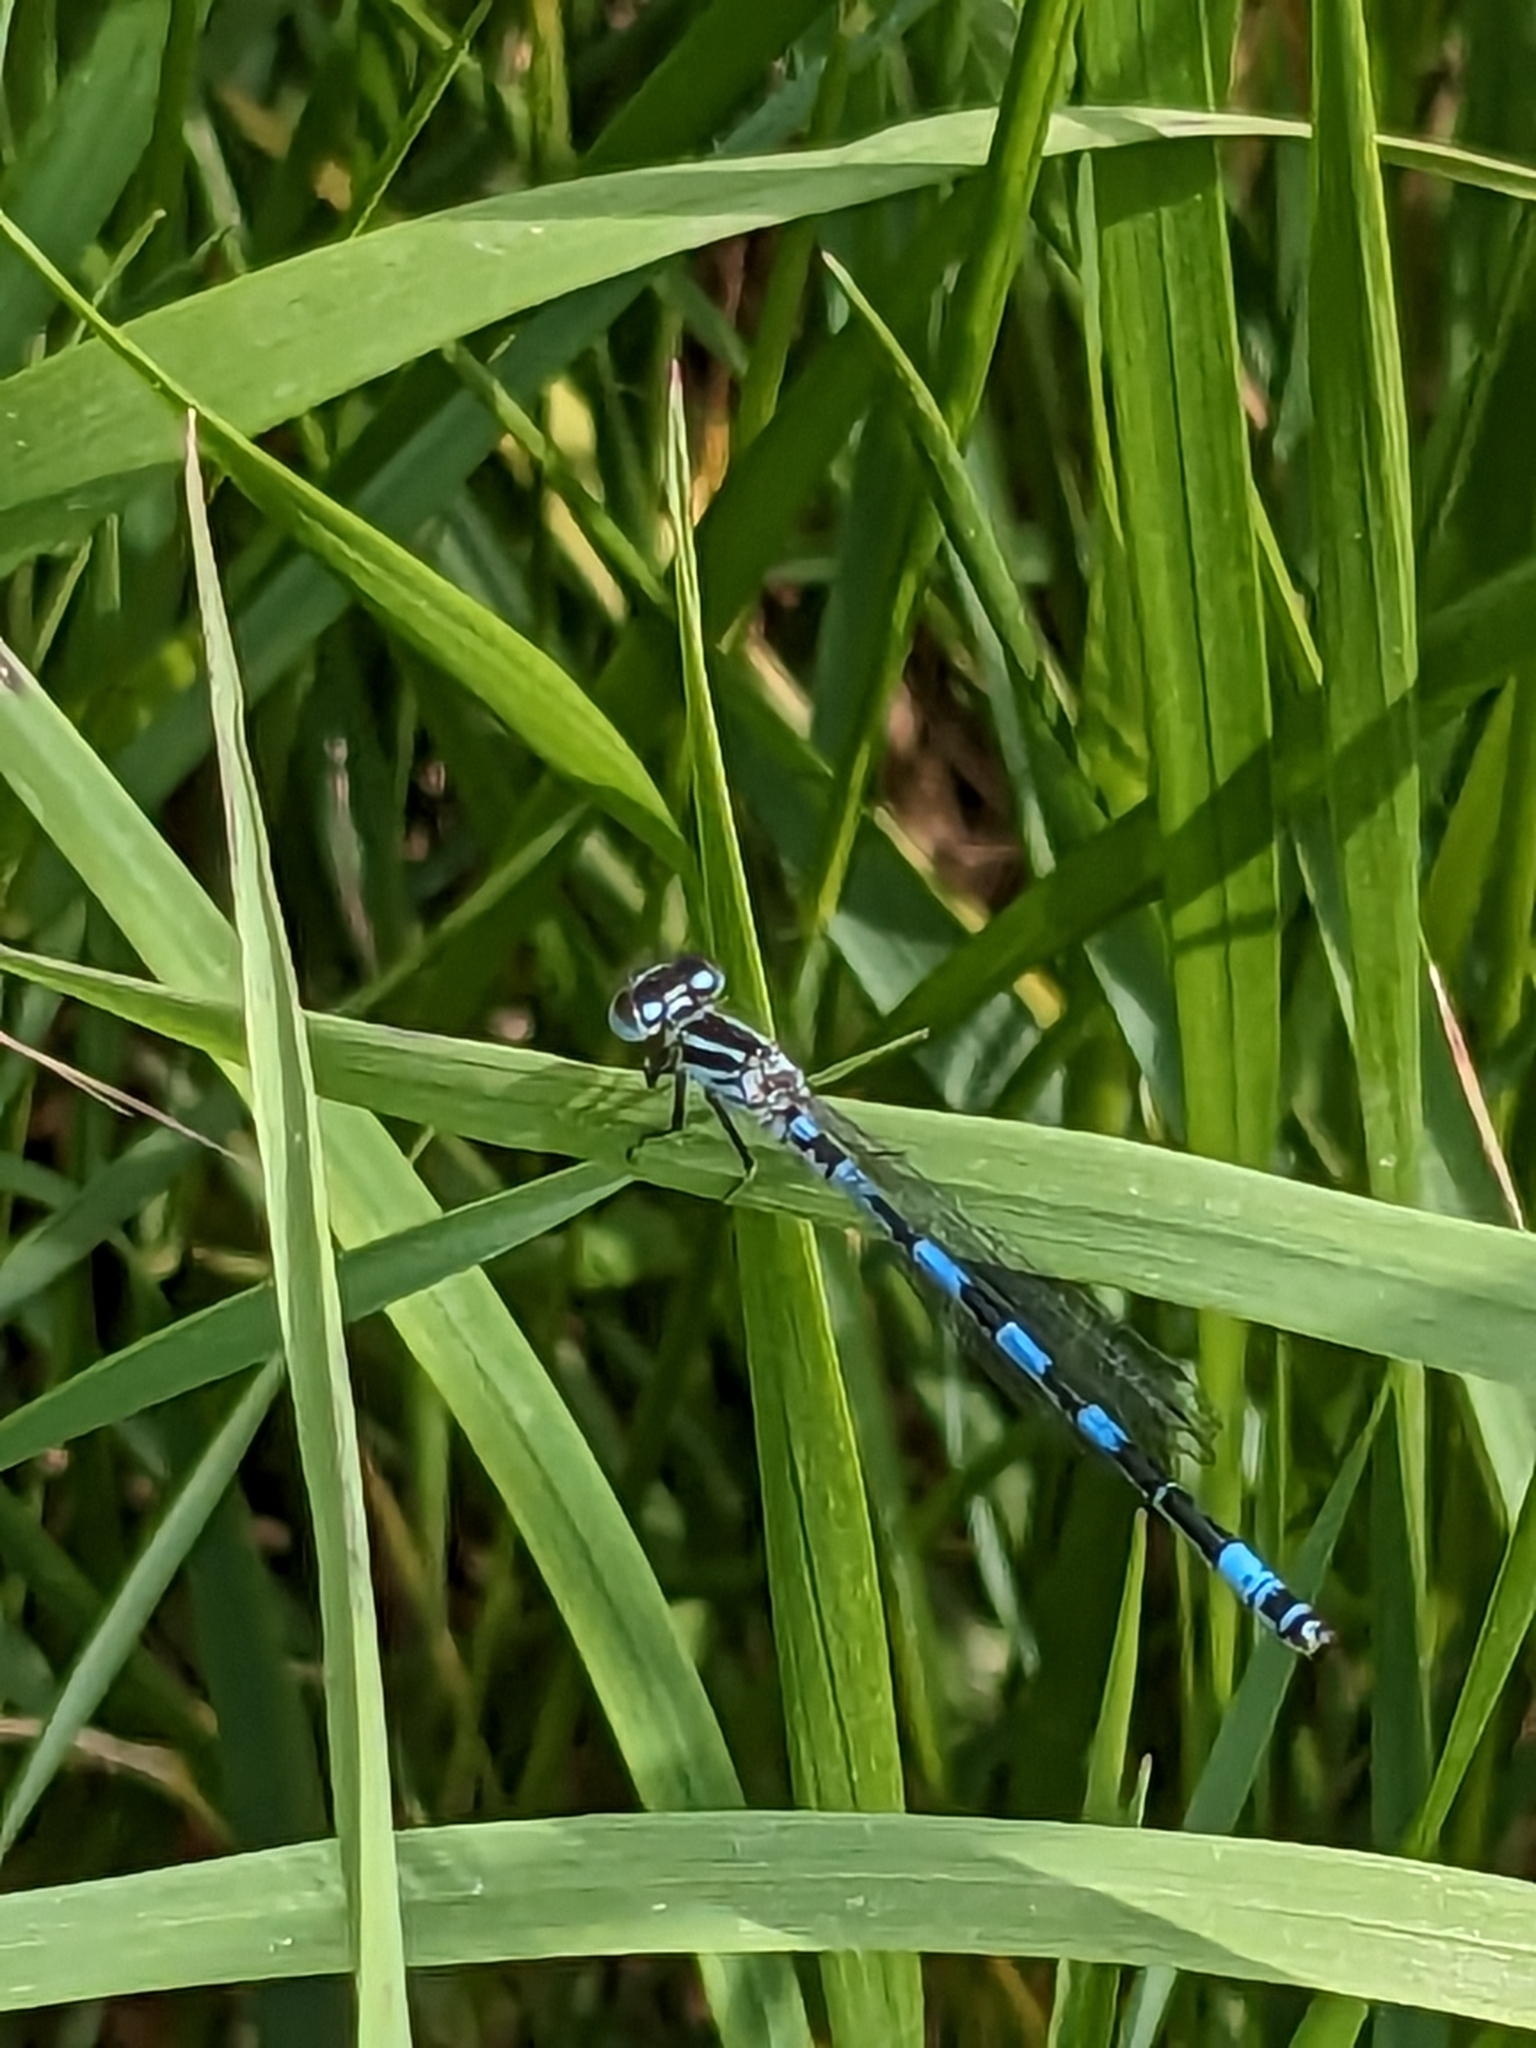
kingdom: Animalia
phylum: Arthropoda
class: Insecta
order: Odonata
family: Coenagrionidae
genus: Coenagrion
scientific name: Coenagrion mercuriale
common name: Southern damselfly
